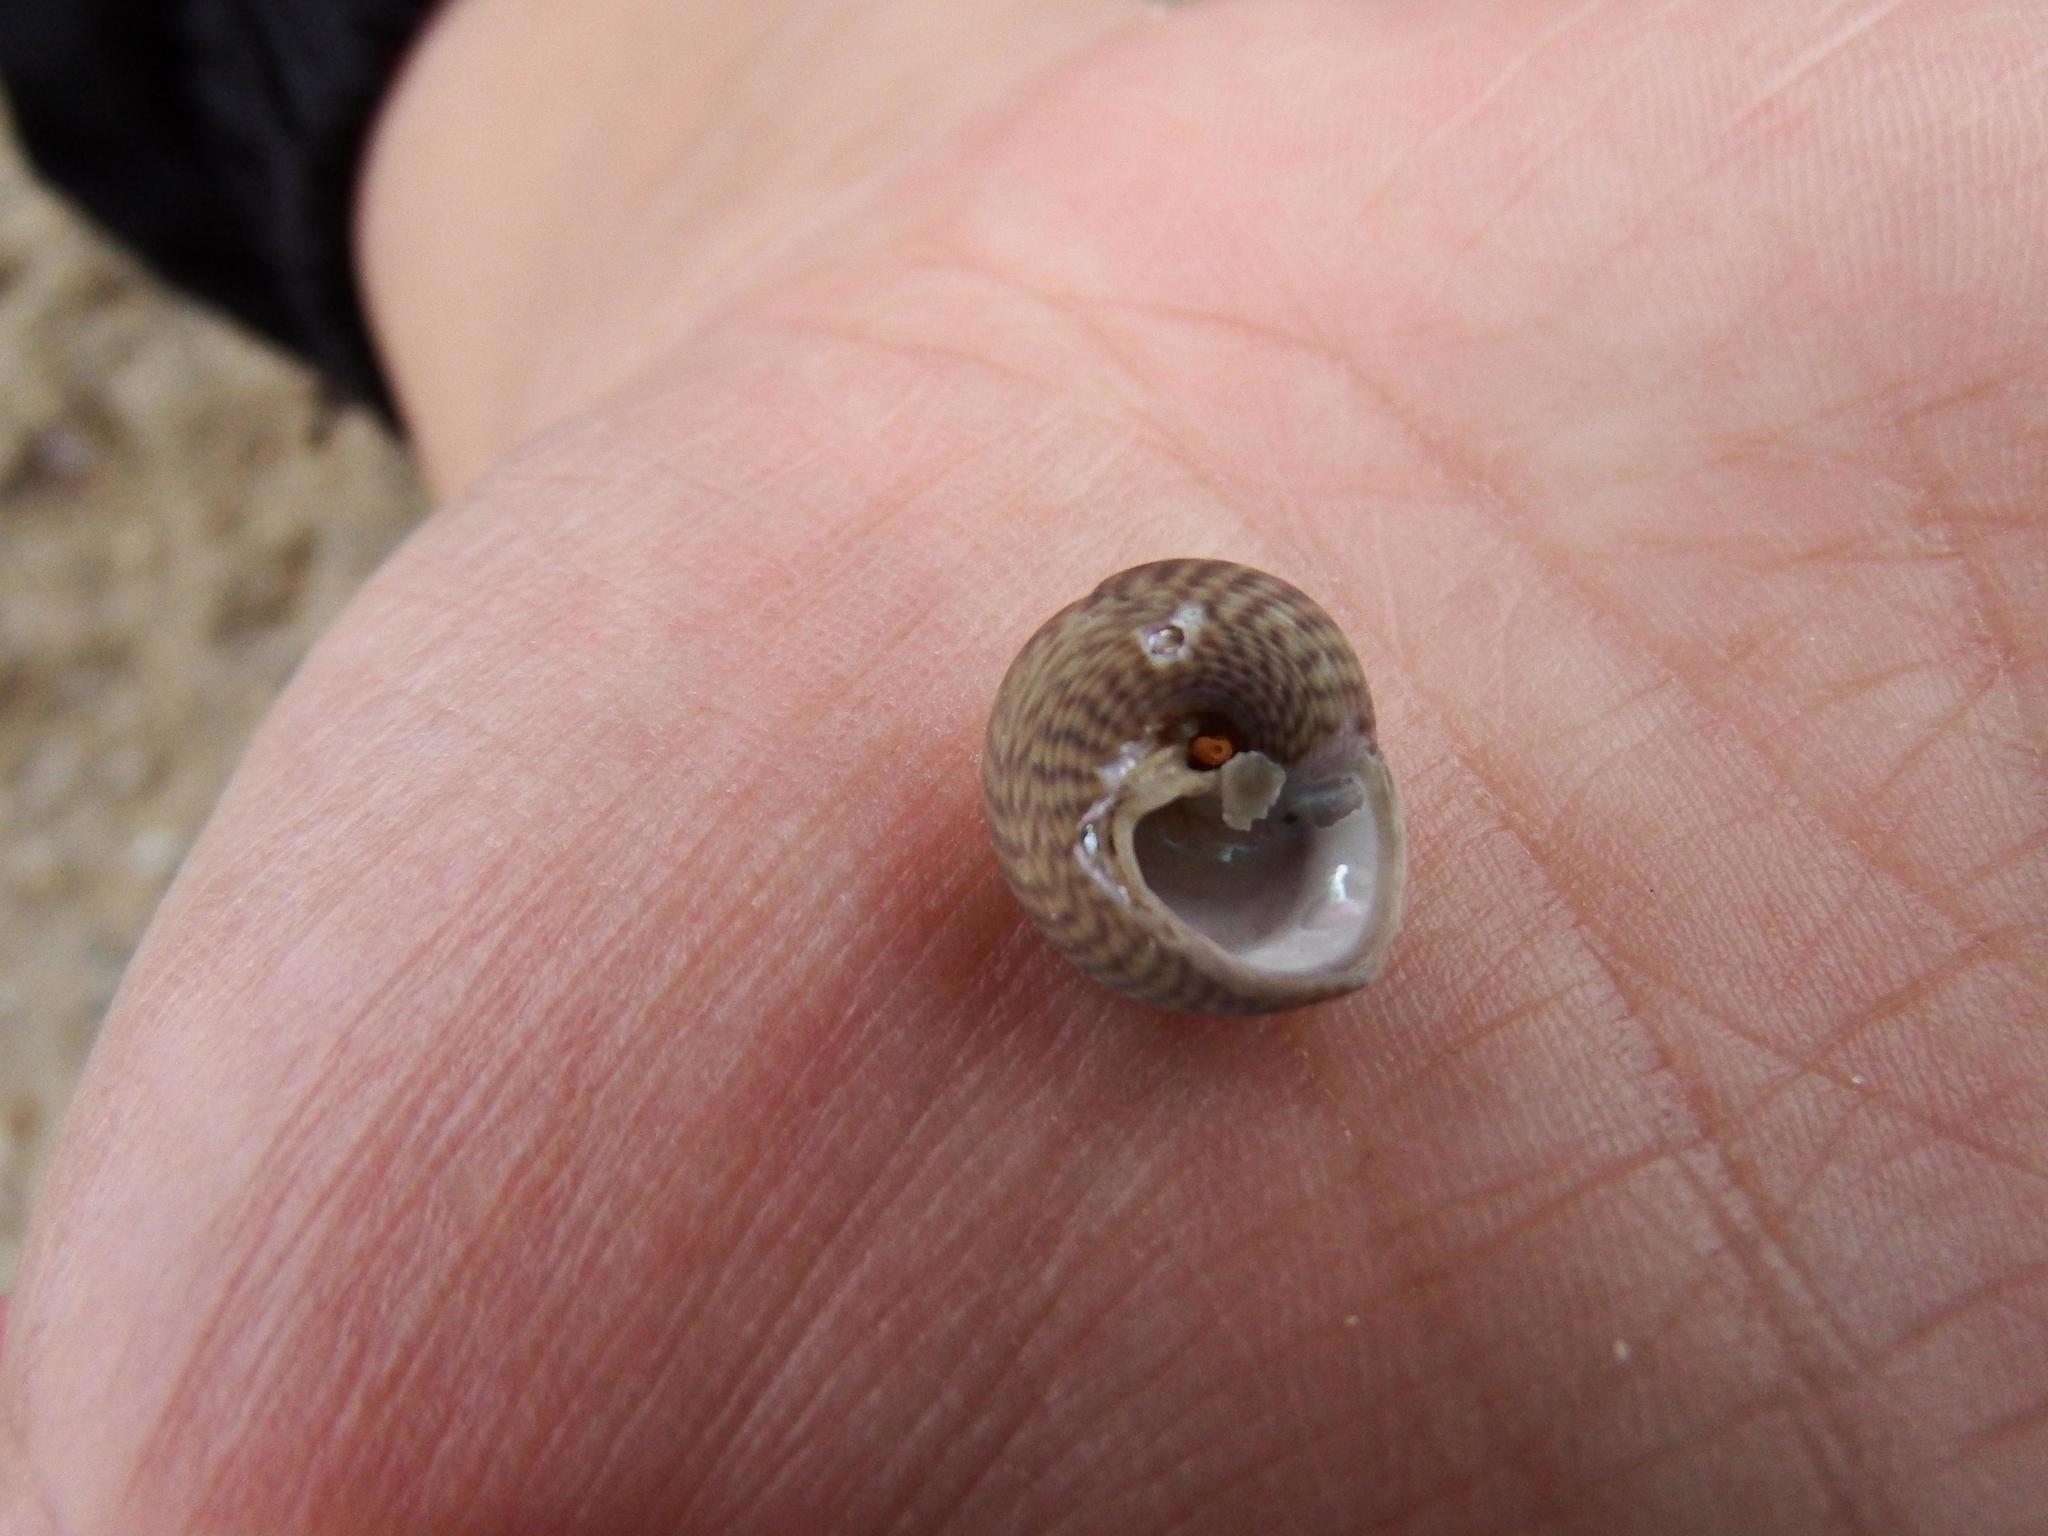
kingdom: Animalia
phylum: Mollusca
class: Gastropoda
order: Trochida
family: Trochidae
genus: Steromphala
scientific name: Steromphala cineraria
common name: Grey top shell
